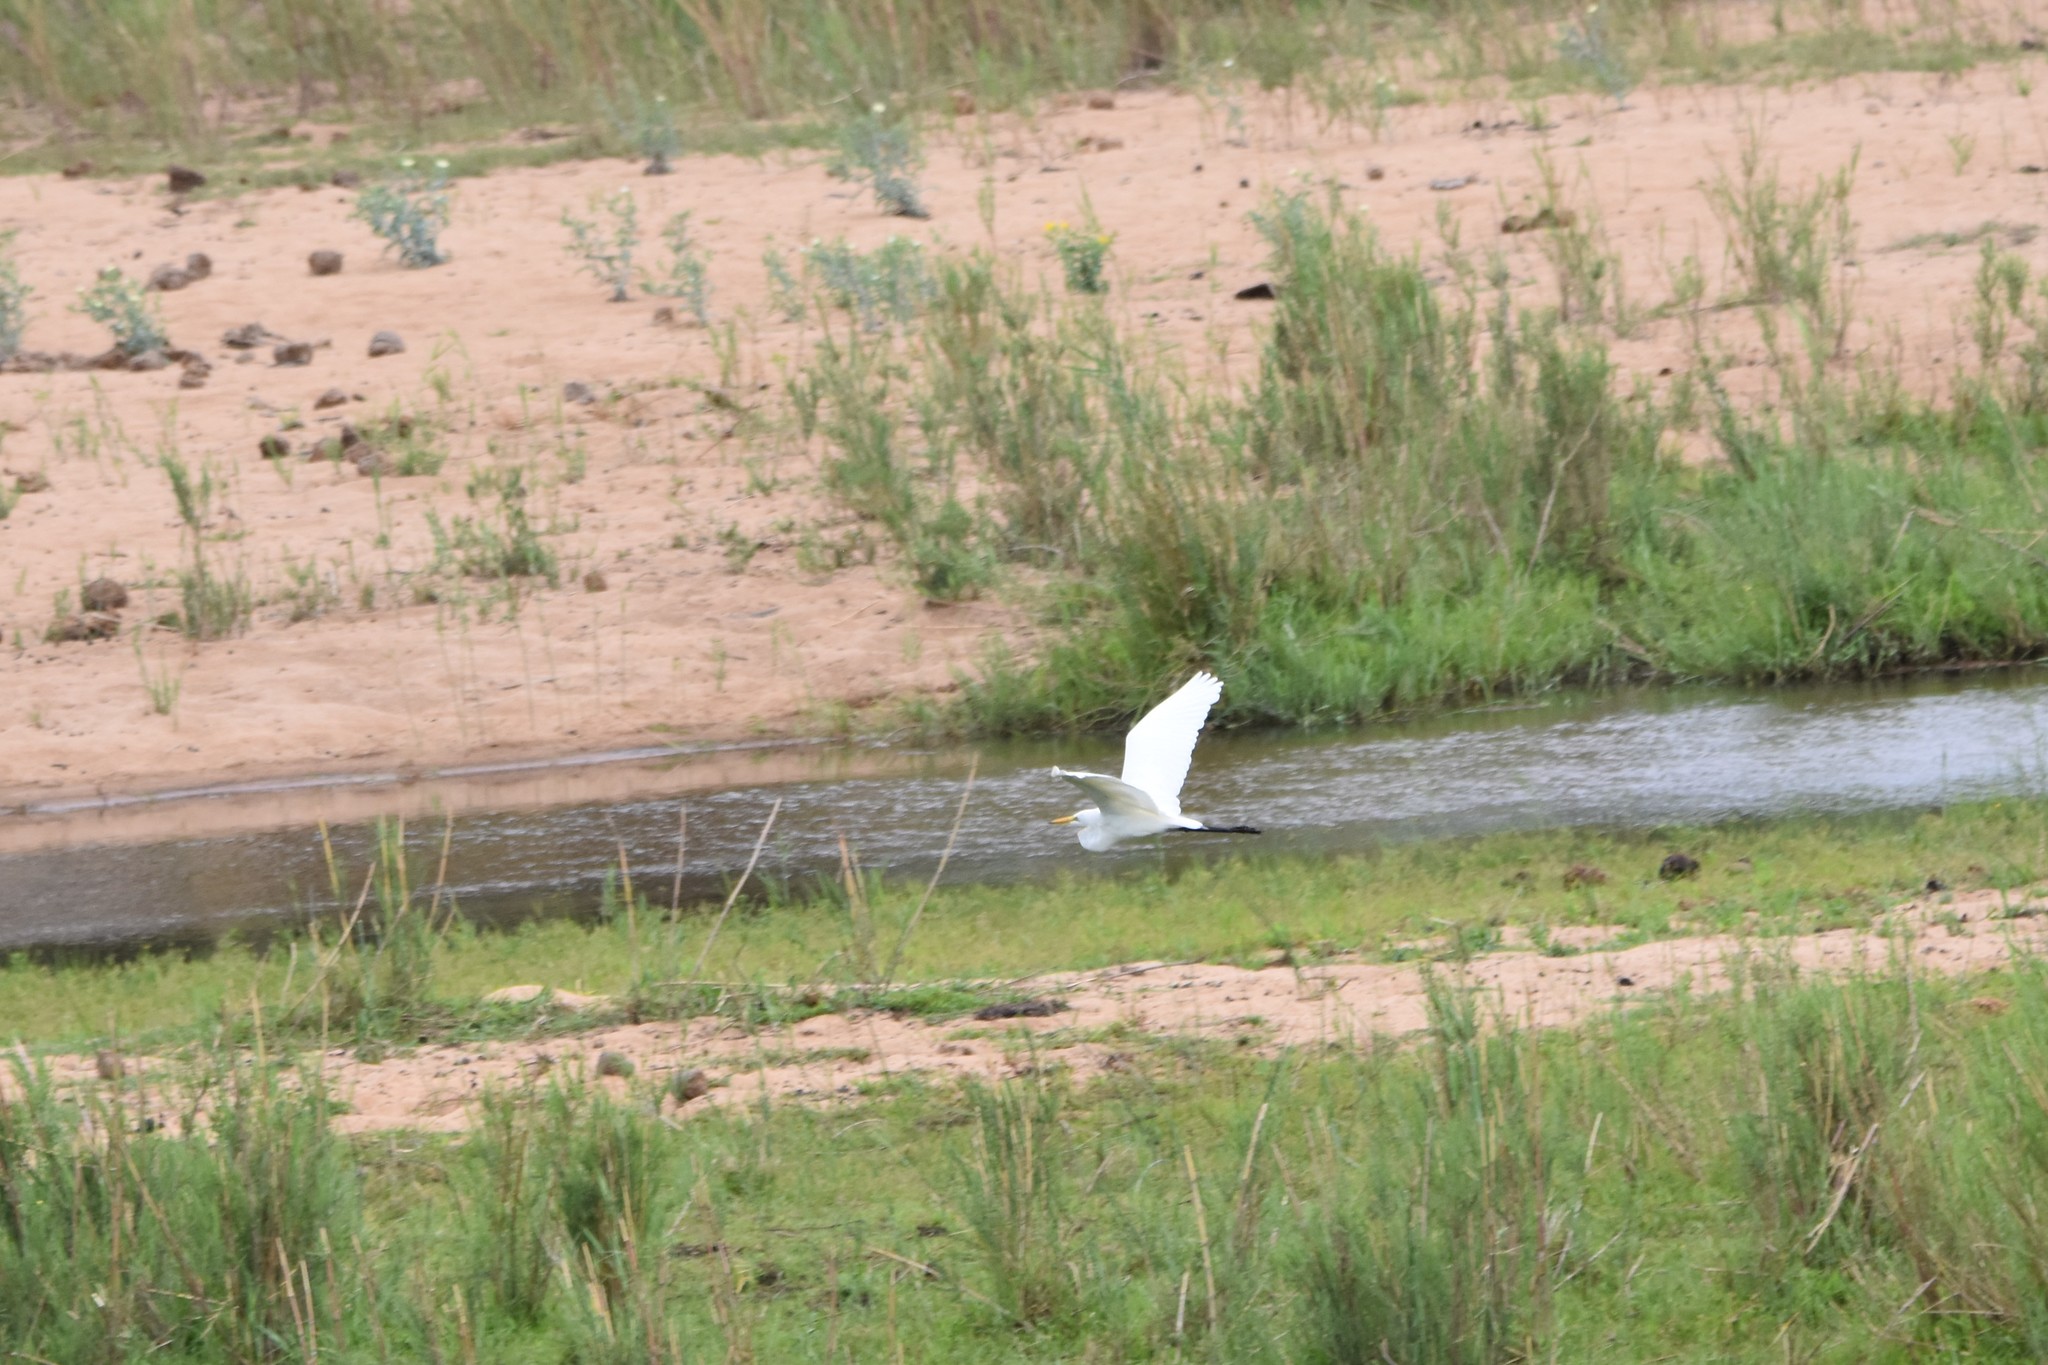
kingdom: Animalia
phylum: Chordata
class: Aves
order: Pelecaniformes
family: Ardeidae
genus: Ardea
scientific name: Ardea alba
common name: Great egret
